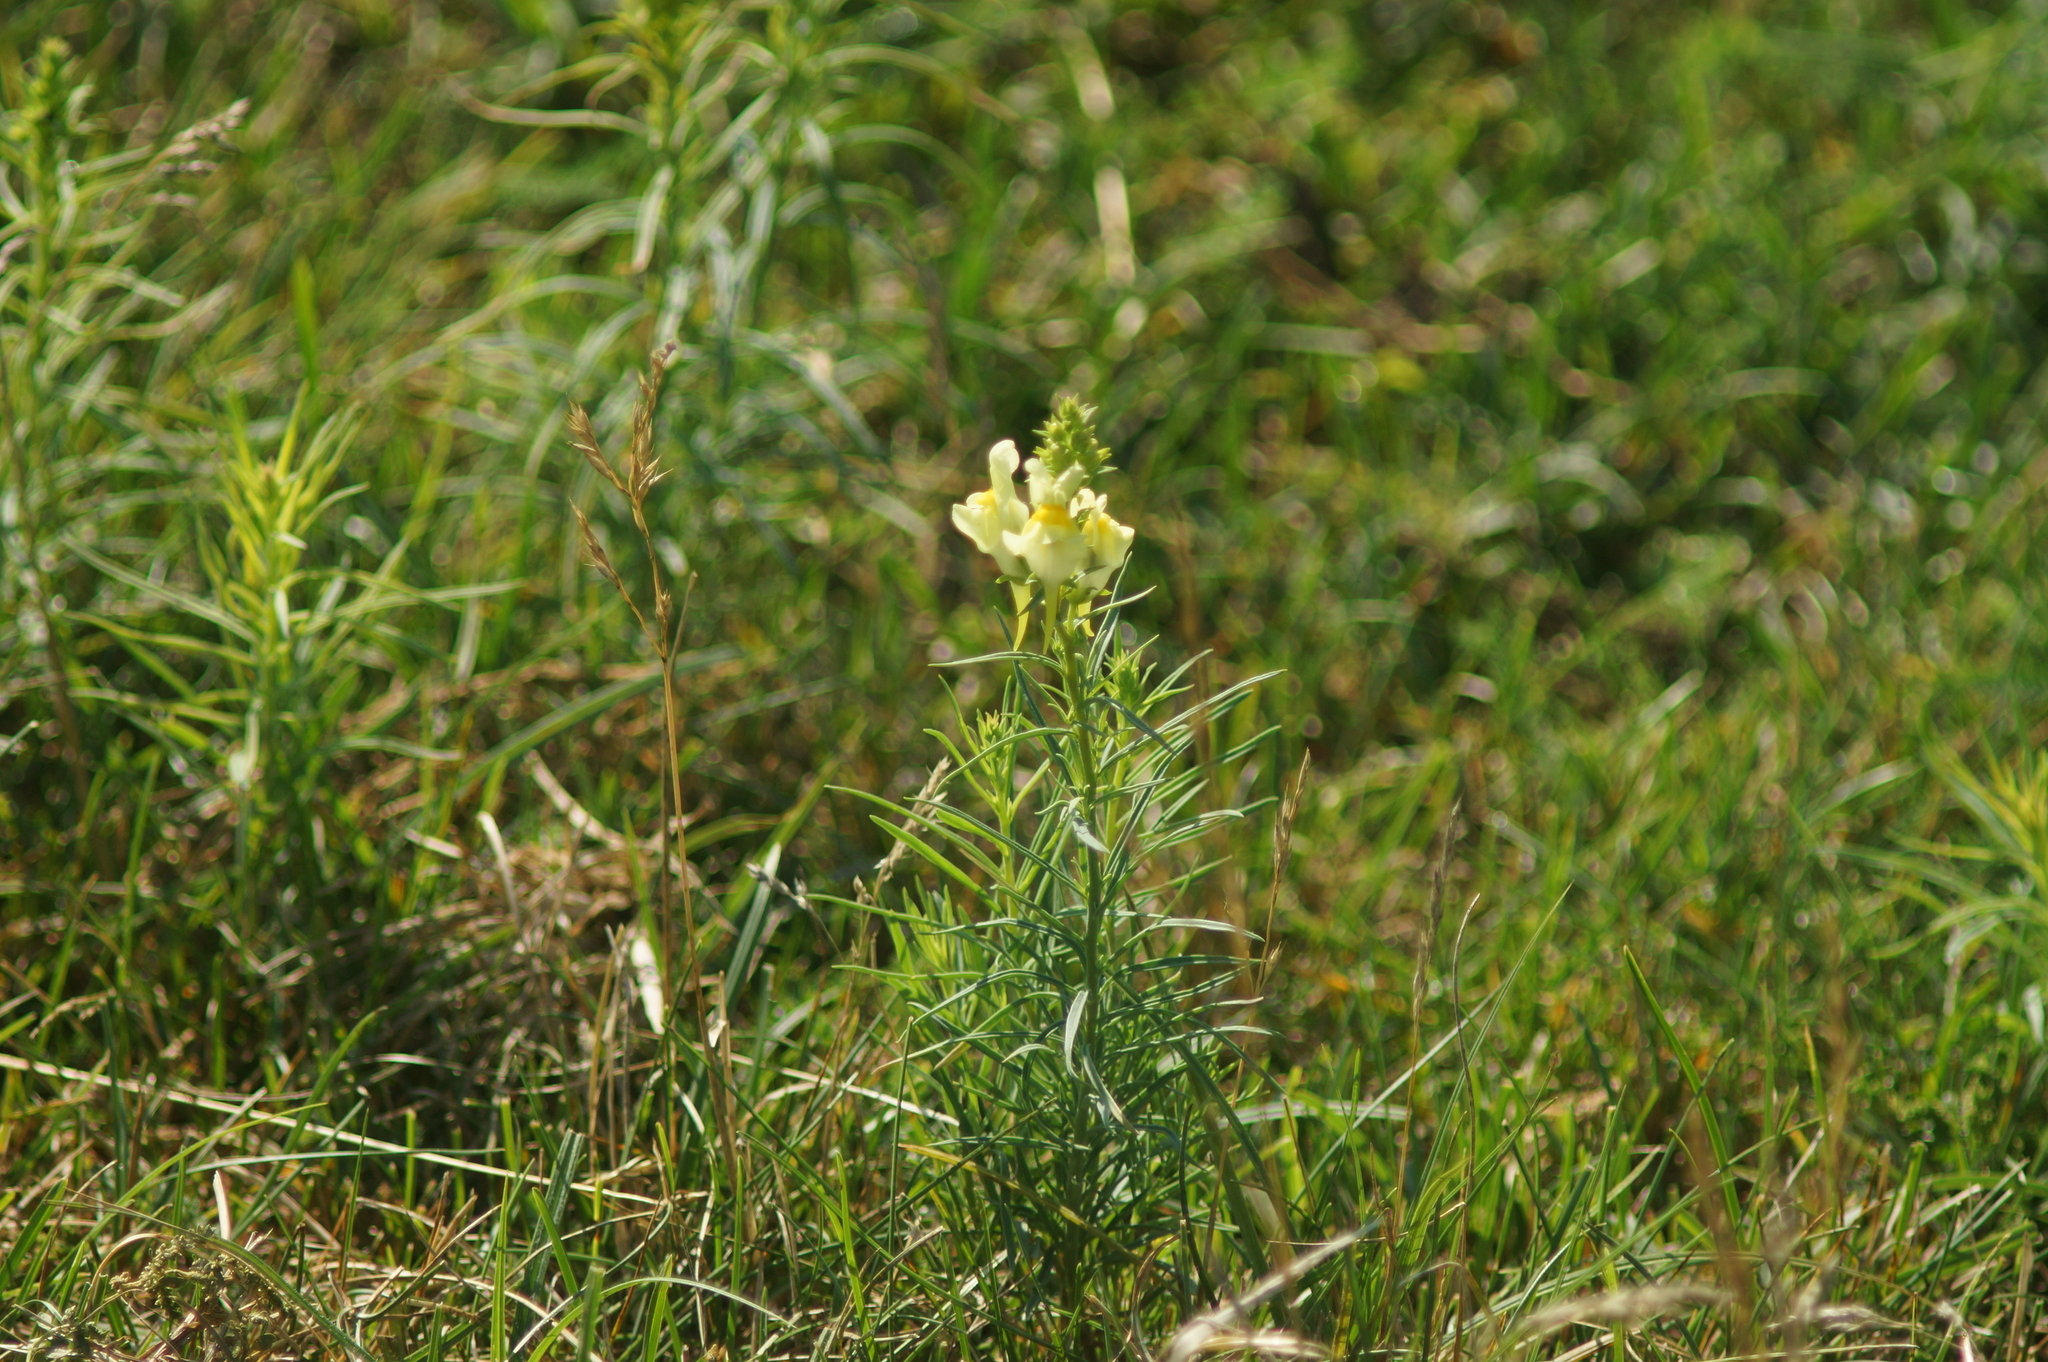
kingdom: Plantae
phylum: Tracheophyta
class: Magnoliopsida
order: Lamiales
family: Plantaginaceae
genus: Linaria
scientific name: Linaria vulgaris
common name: Butter and eggs
